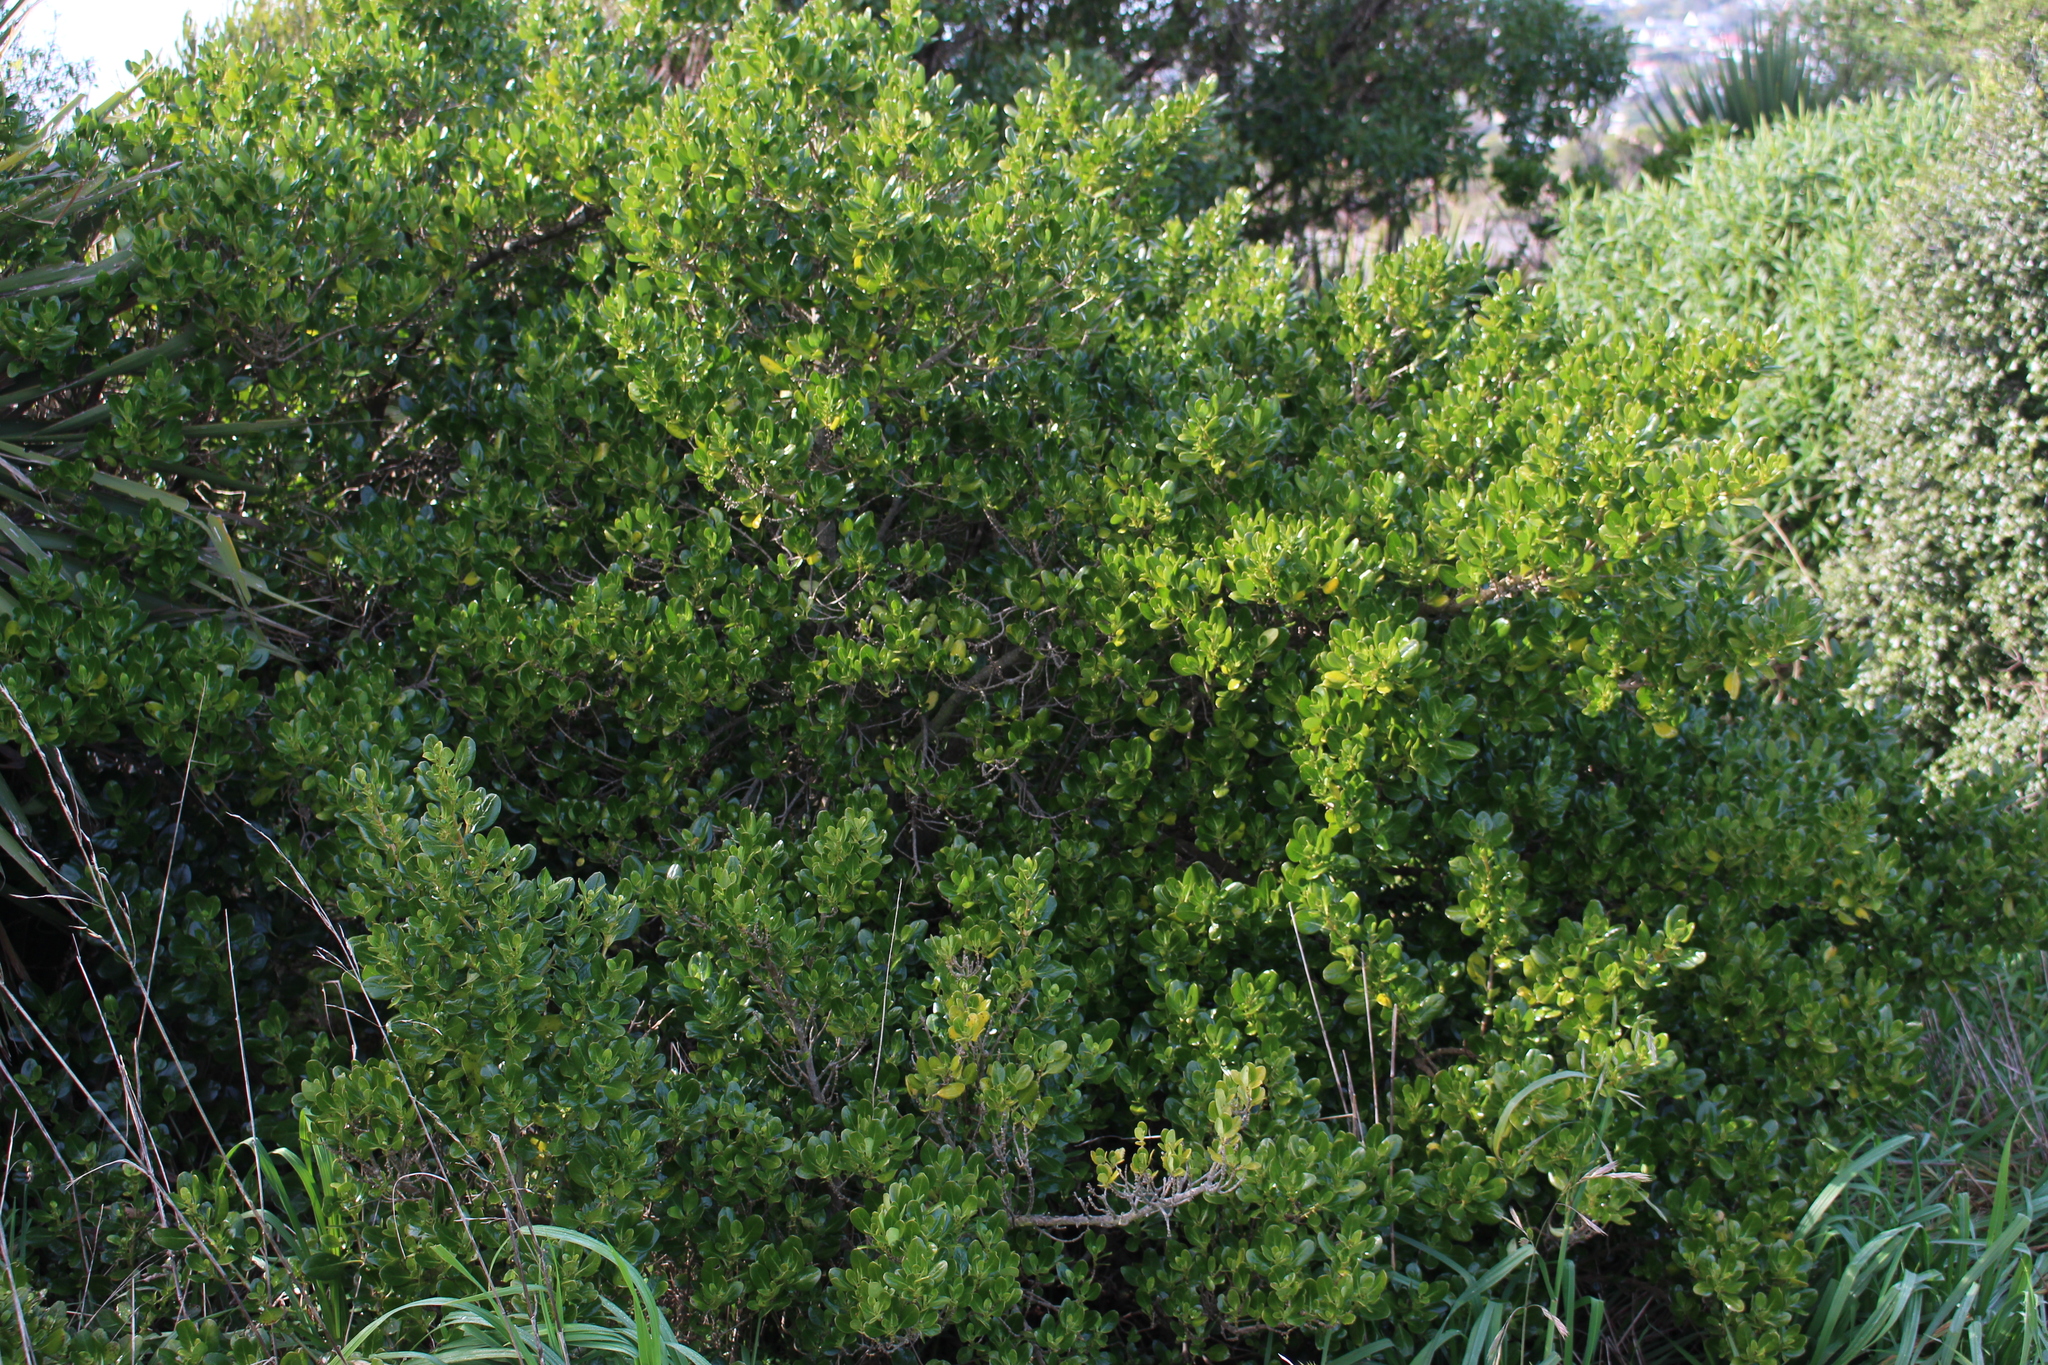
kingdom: Plantae
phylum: Tracheophyta
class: Magnoliopsida
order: Gentianales
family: Rubiaceae
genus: Coprosma
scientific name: Coprosma repens
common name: Tree bedstraw
